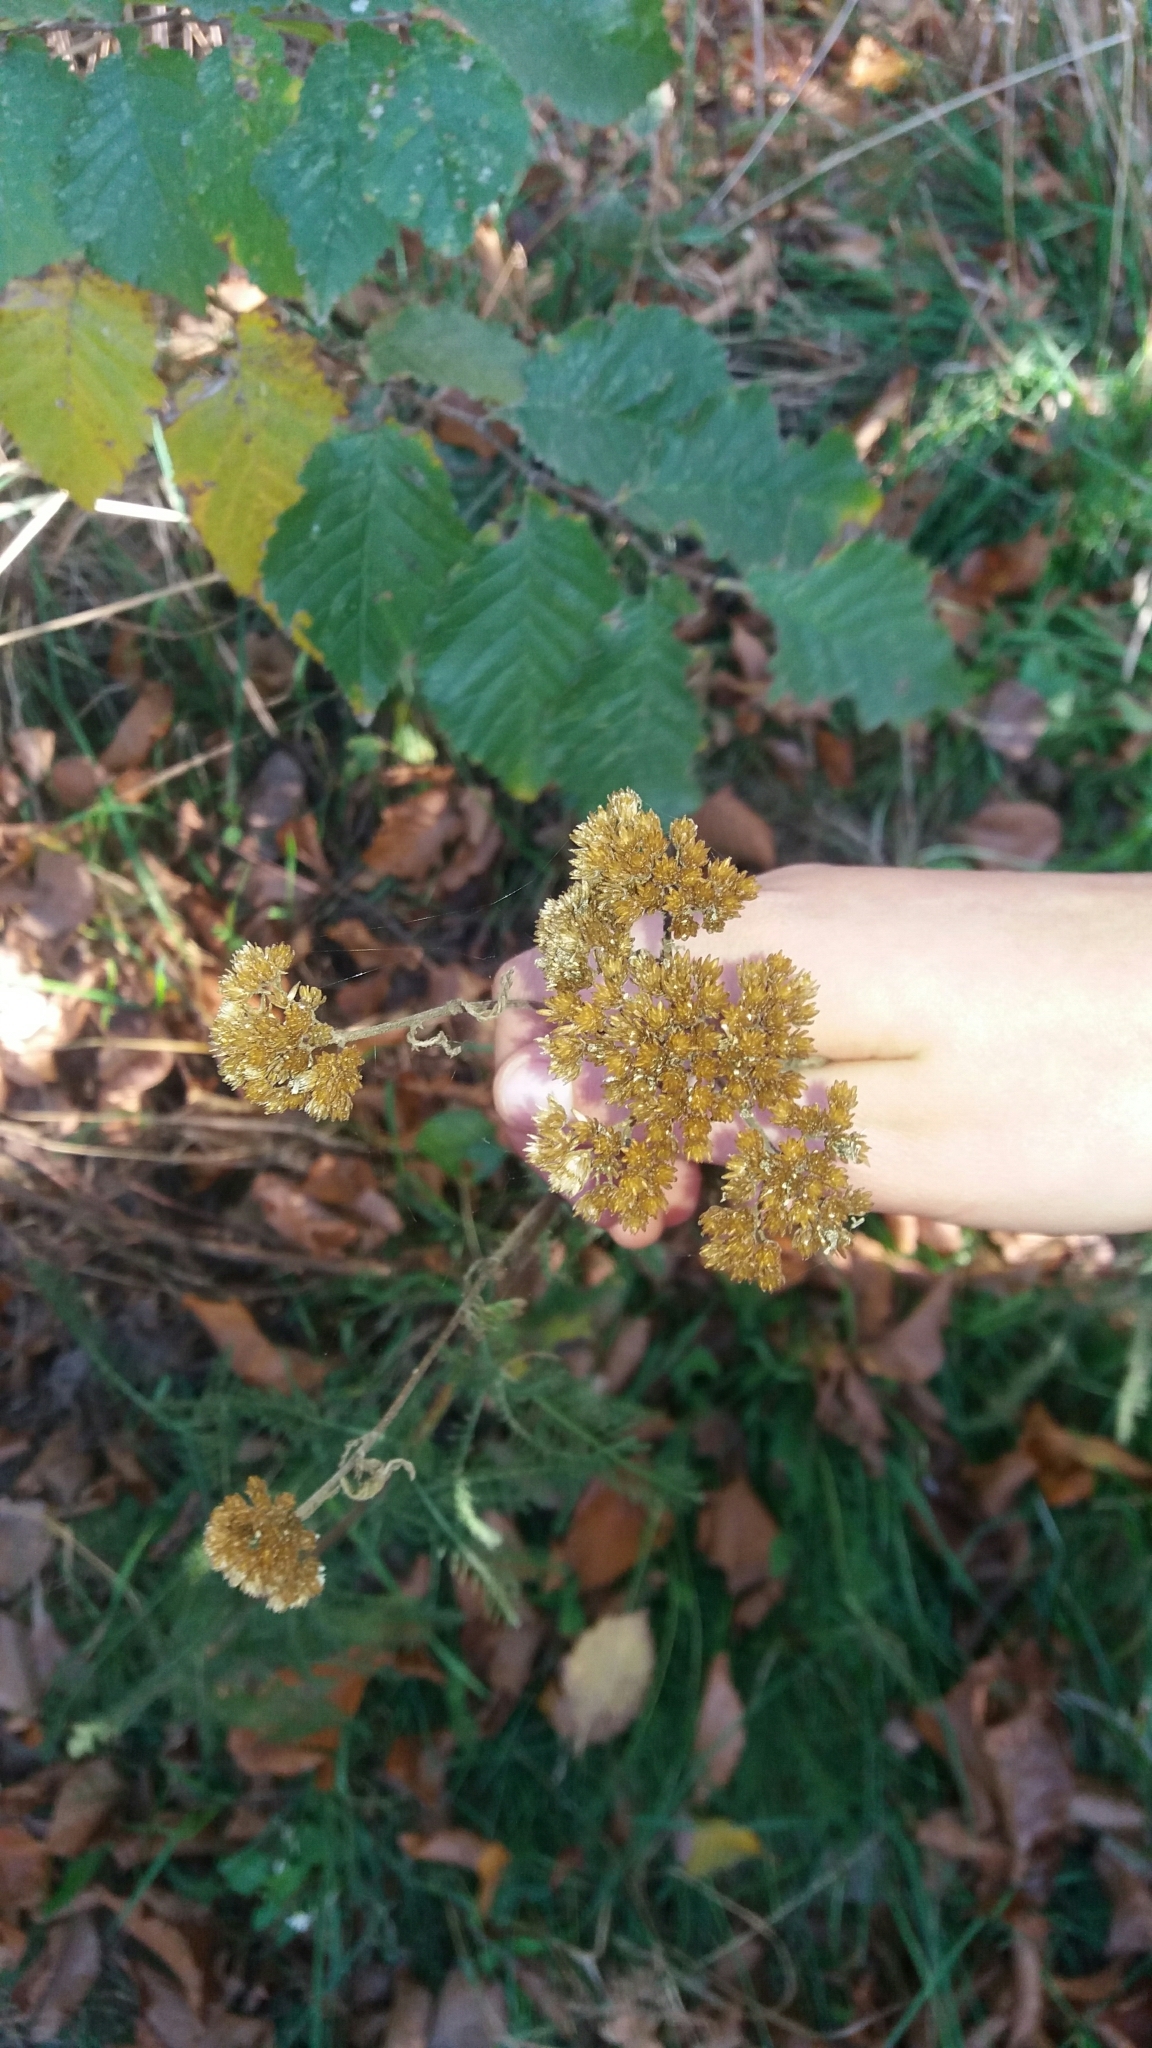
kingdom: Plantae
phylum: Tracheophyta
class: Magnoliopsida
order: Asterales
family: Asteraceae
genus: Achillea
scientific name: Achillea millefolium
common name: Yarrow
